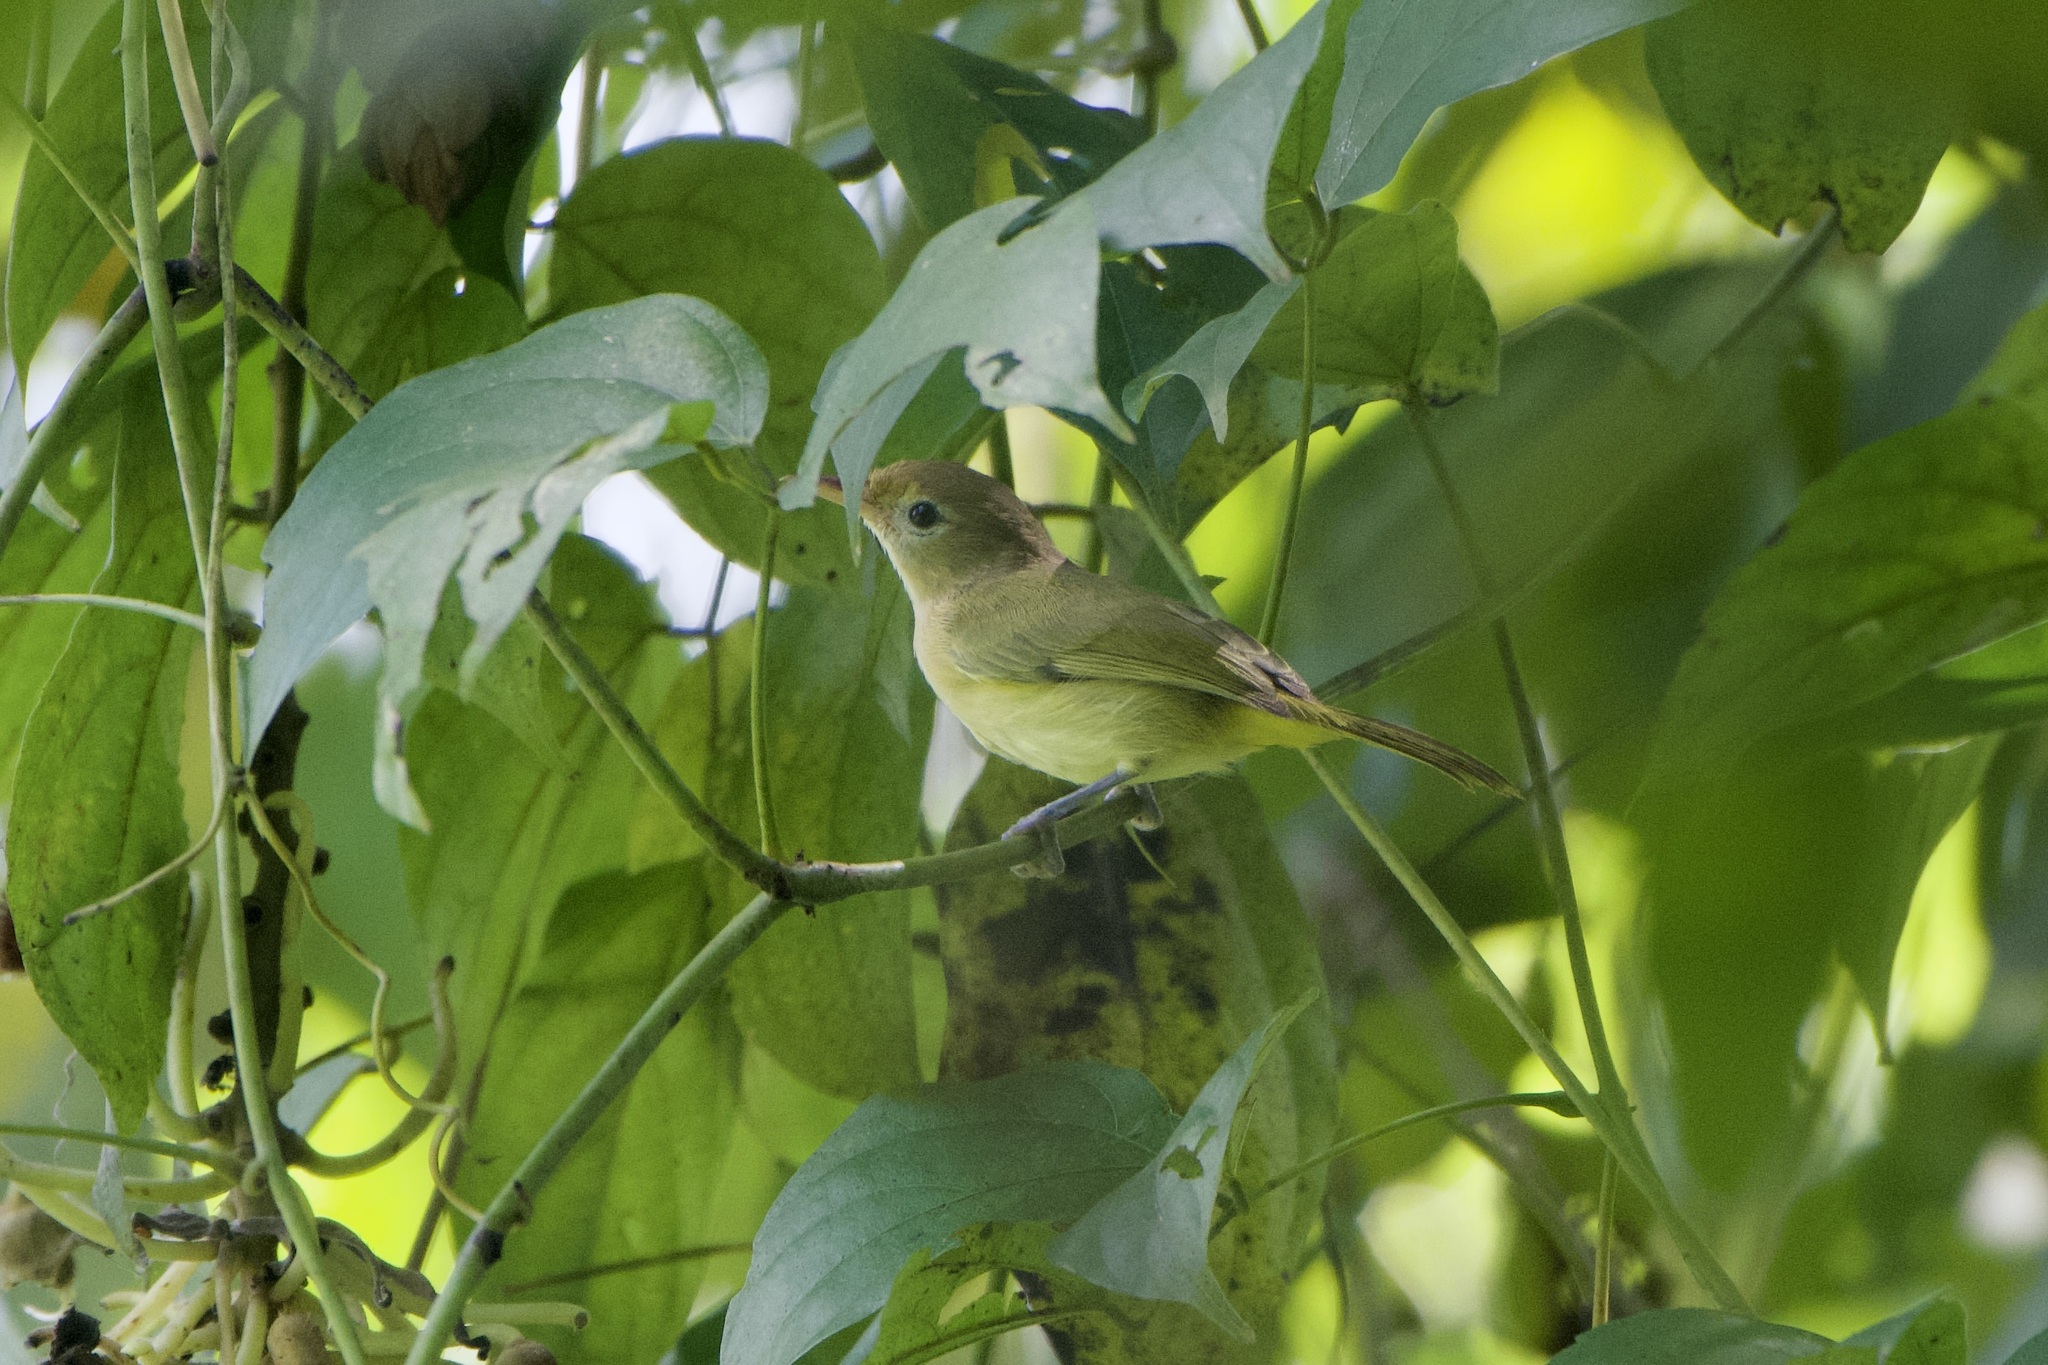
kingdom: Animalia
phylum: Chordata
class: Aves
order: Passeriformes
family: Vireonidae
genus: Hylophilus
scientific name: Hylophilus aurantiifrons
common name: Golden-fronted greenlet
